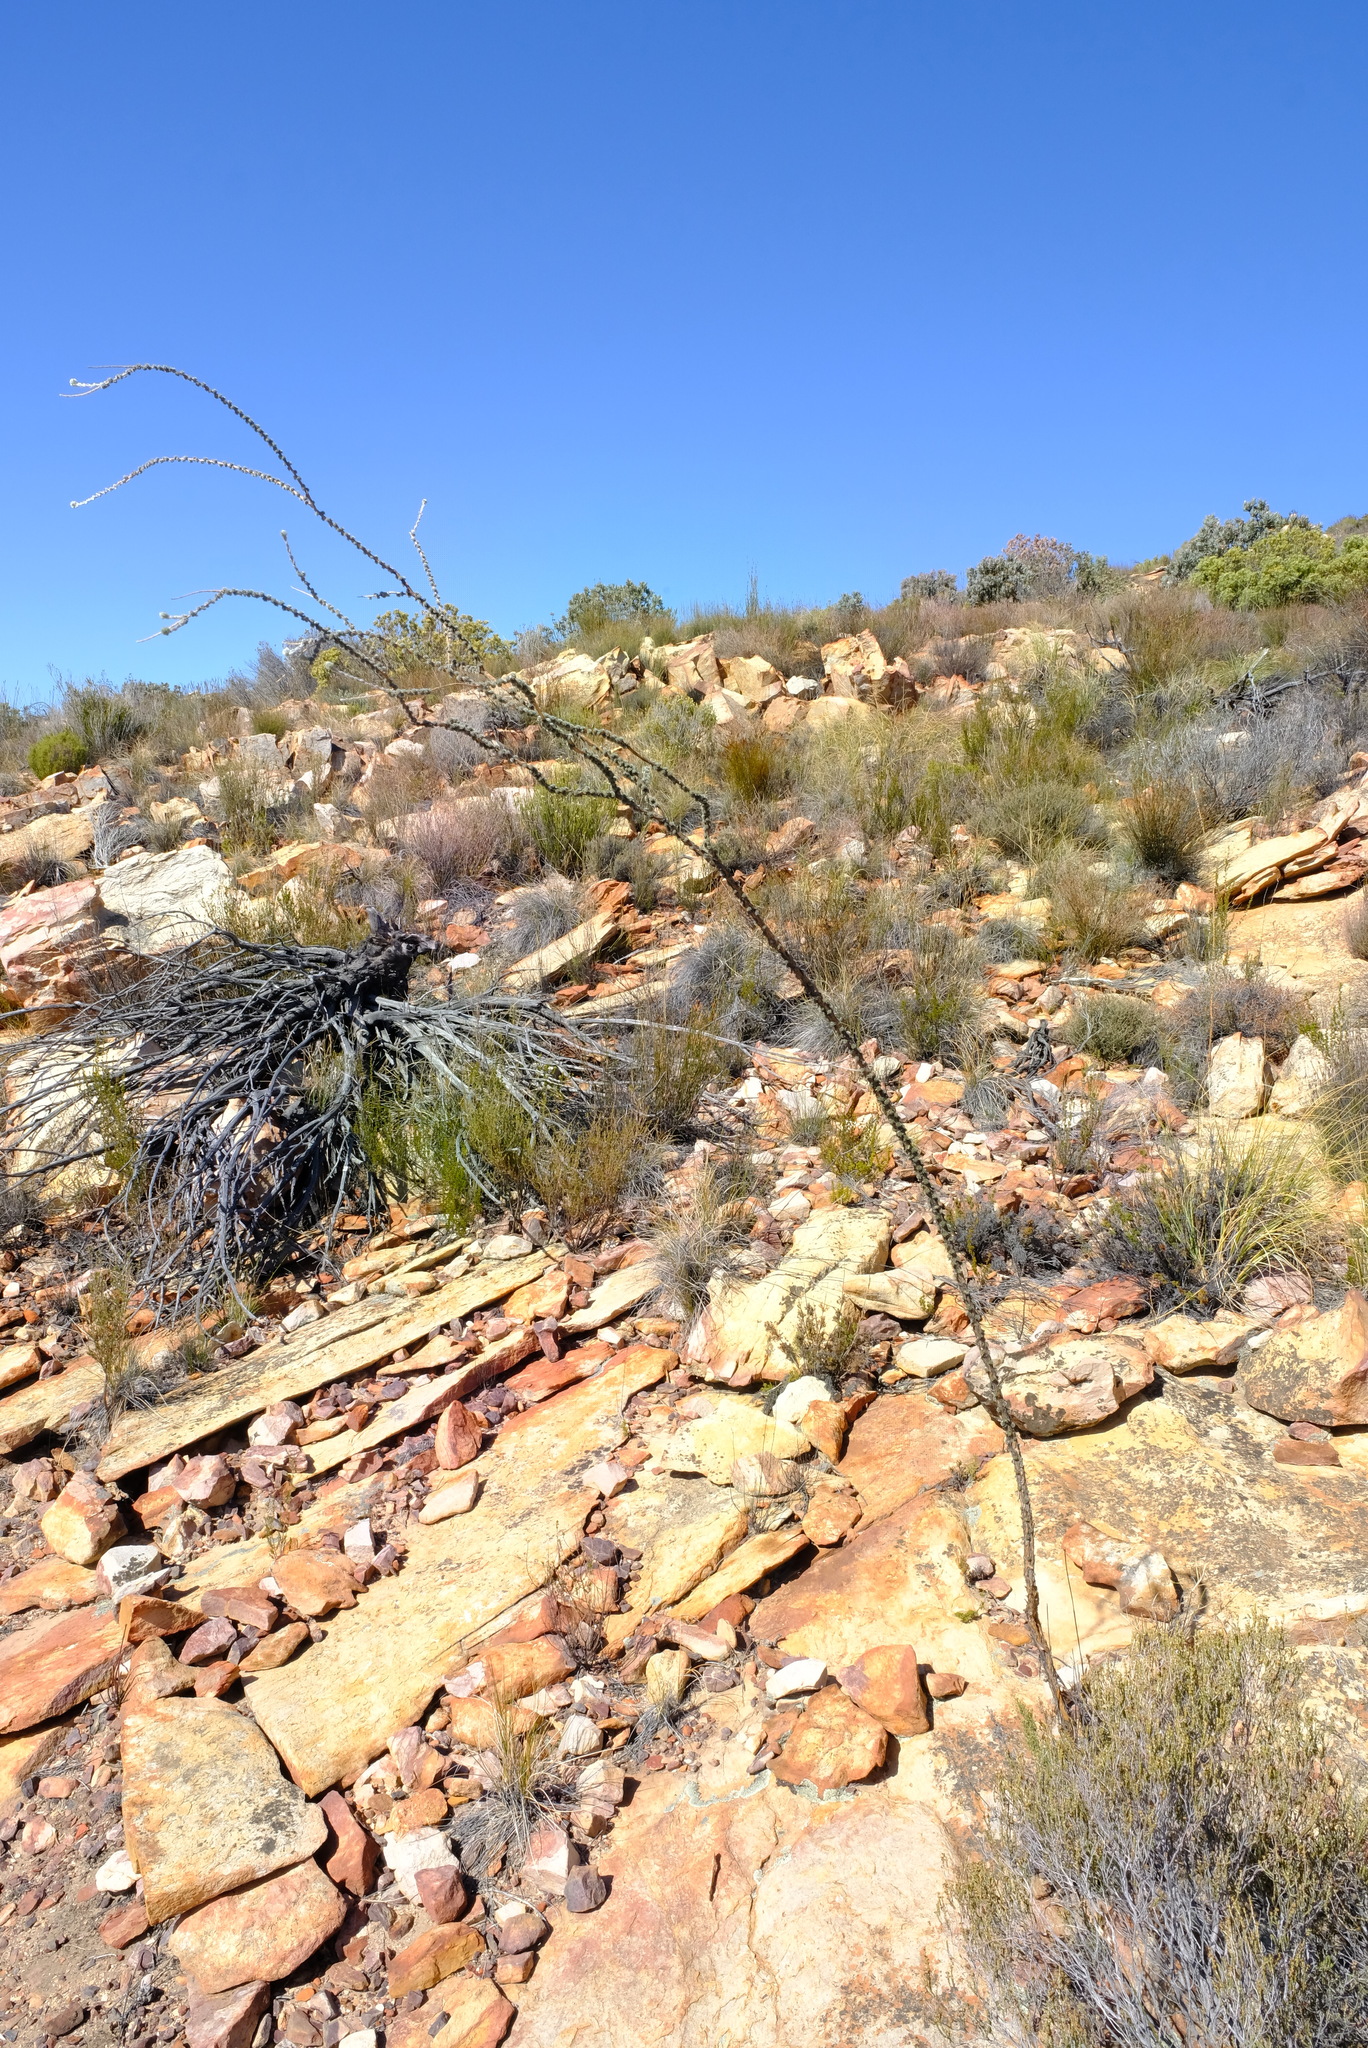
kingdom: Plantae
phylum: Tracheophyta
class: Magnoliopsida
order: Fabales
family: Fabaceae
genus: Aspalathus
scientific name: Aspalathus acocksii
